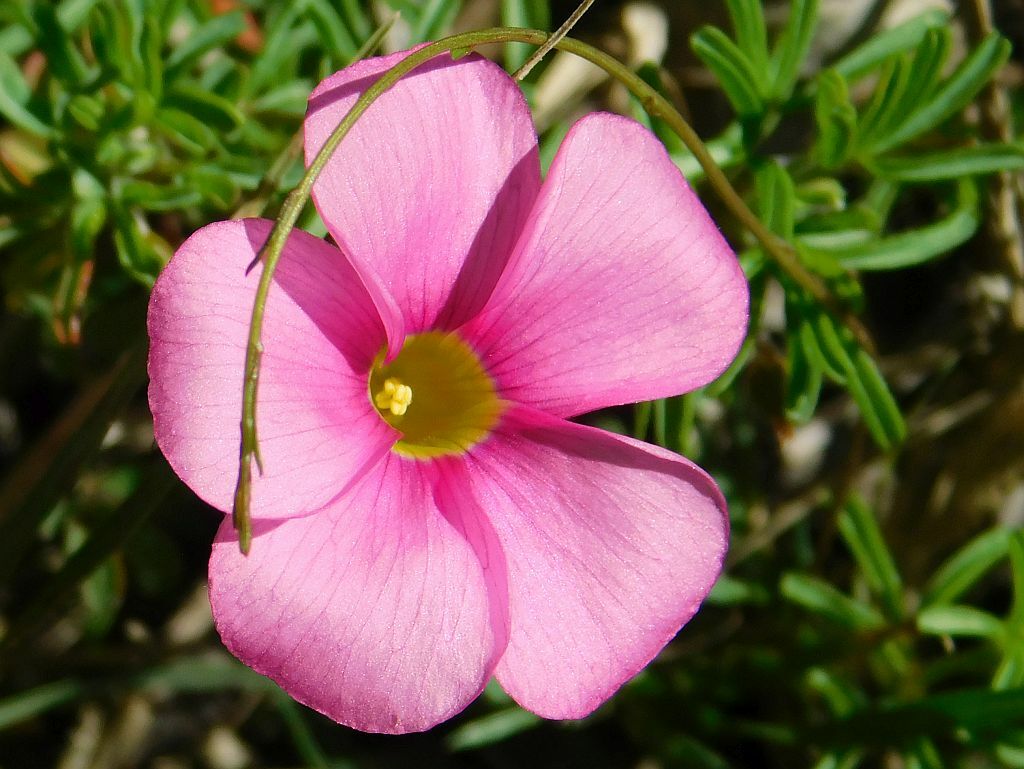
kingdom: Plantae
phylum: Tracheophyta
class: Magnoliopsida
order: Oxalidales
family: Oxalidaceae
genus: Oxalis
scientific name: Oxalis glabra
